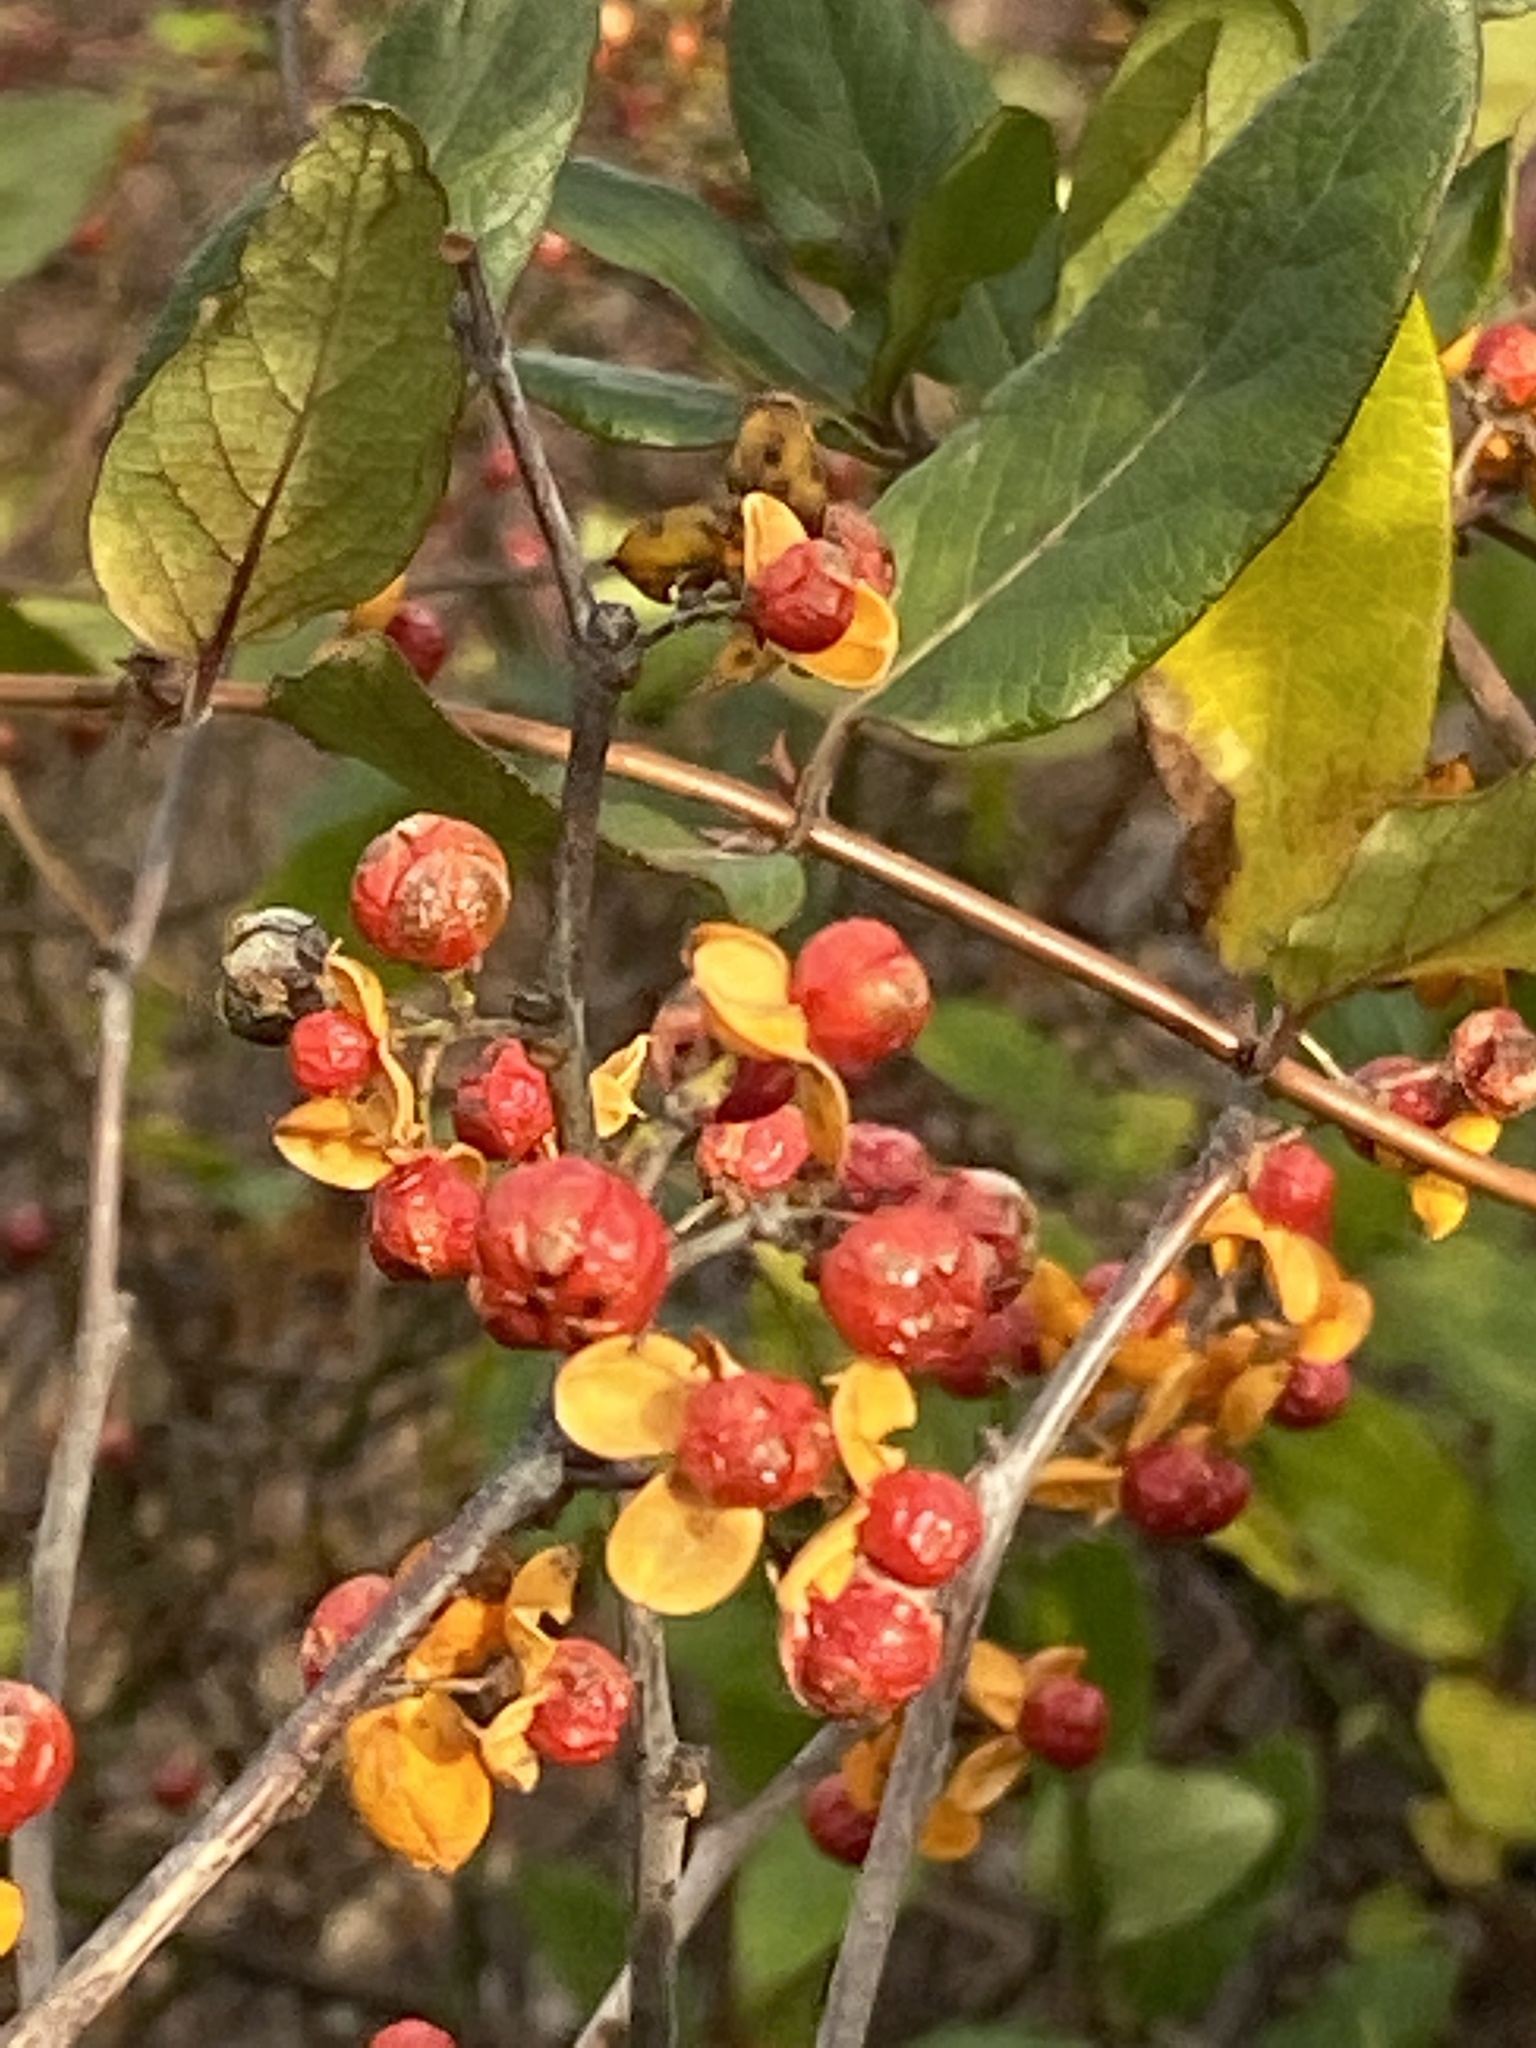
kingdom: Plantae
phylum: Tracheophyta
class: Magnoliopsida
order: Celastrales
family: Celastraceae
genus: Celastrus
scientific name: Celastrus orbiculatus
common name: Oriental bittersweet
